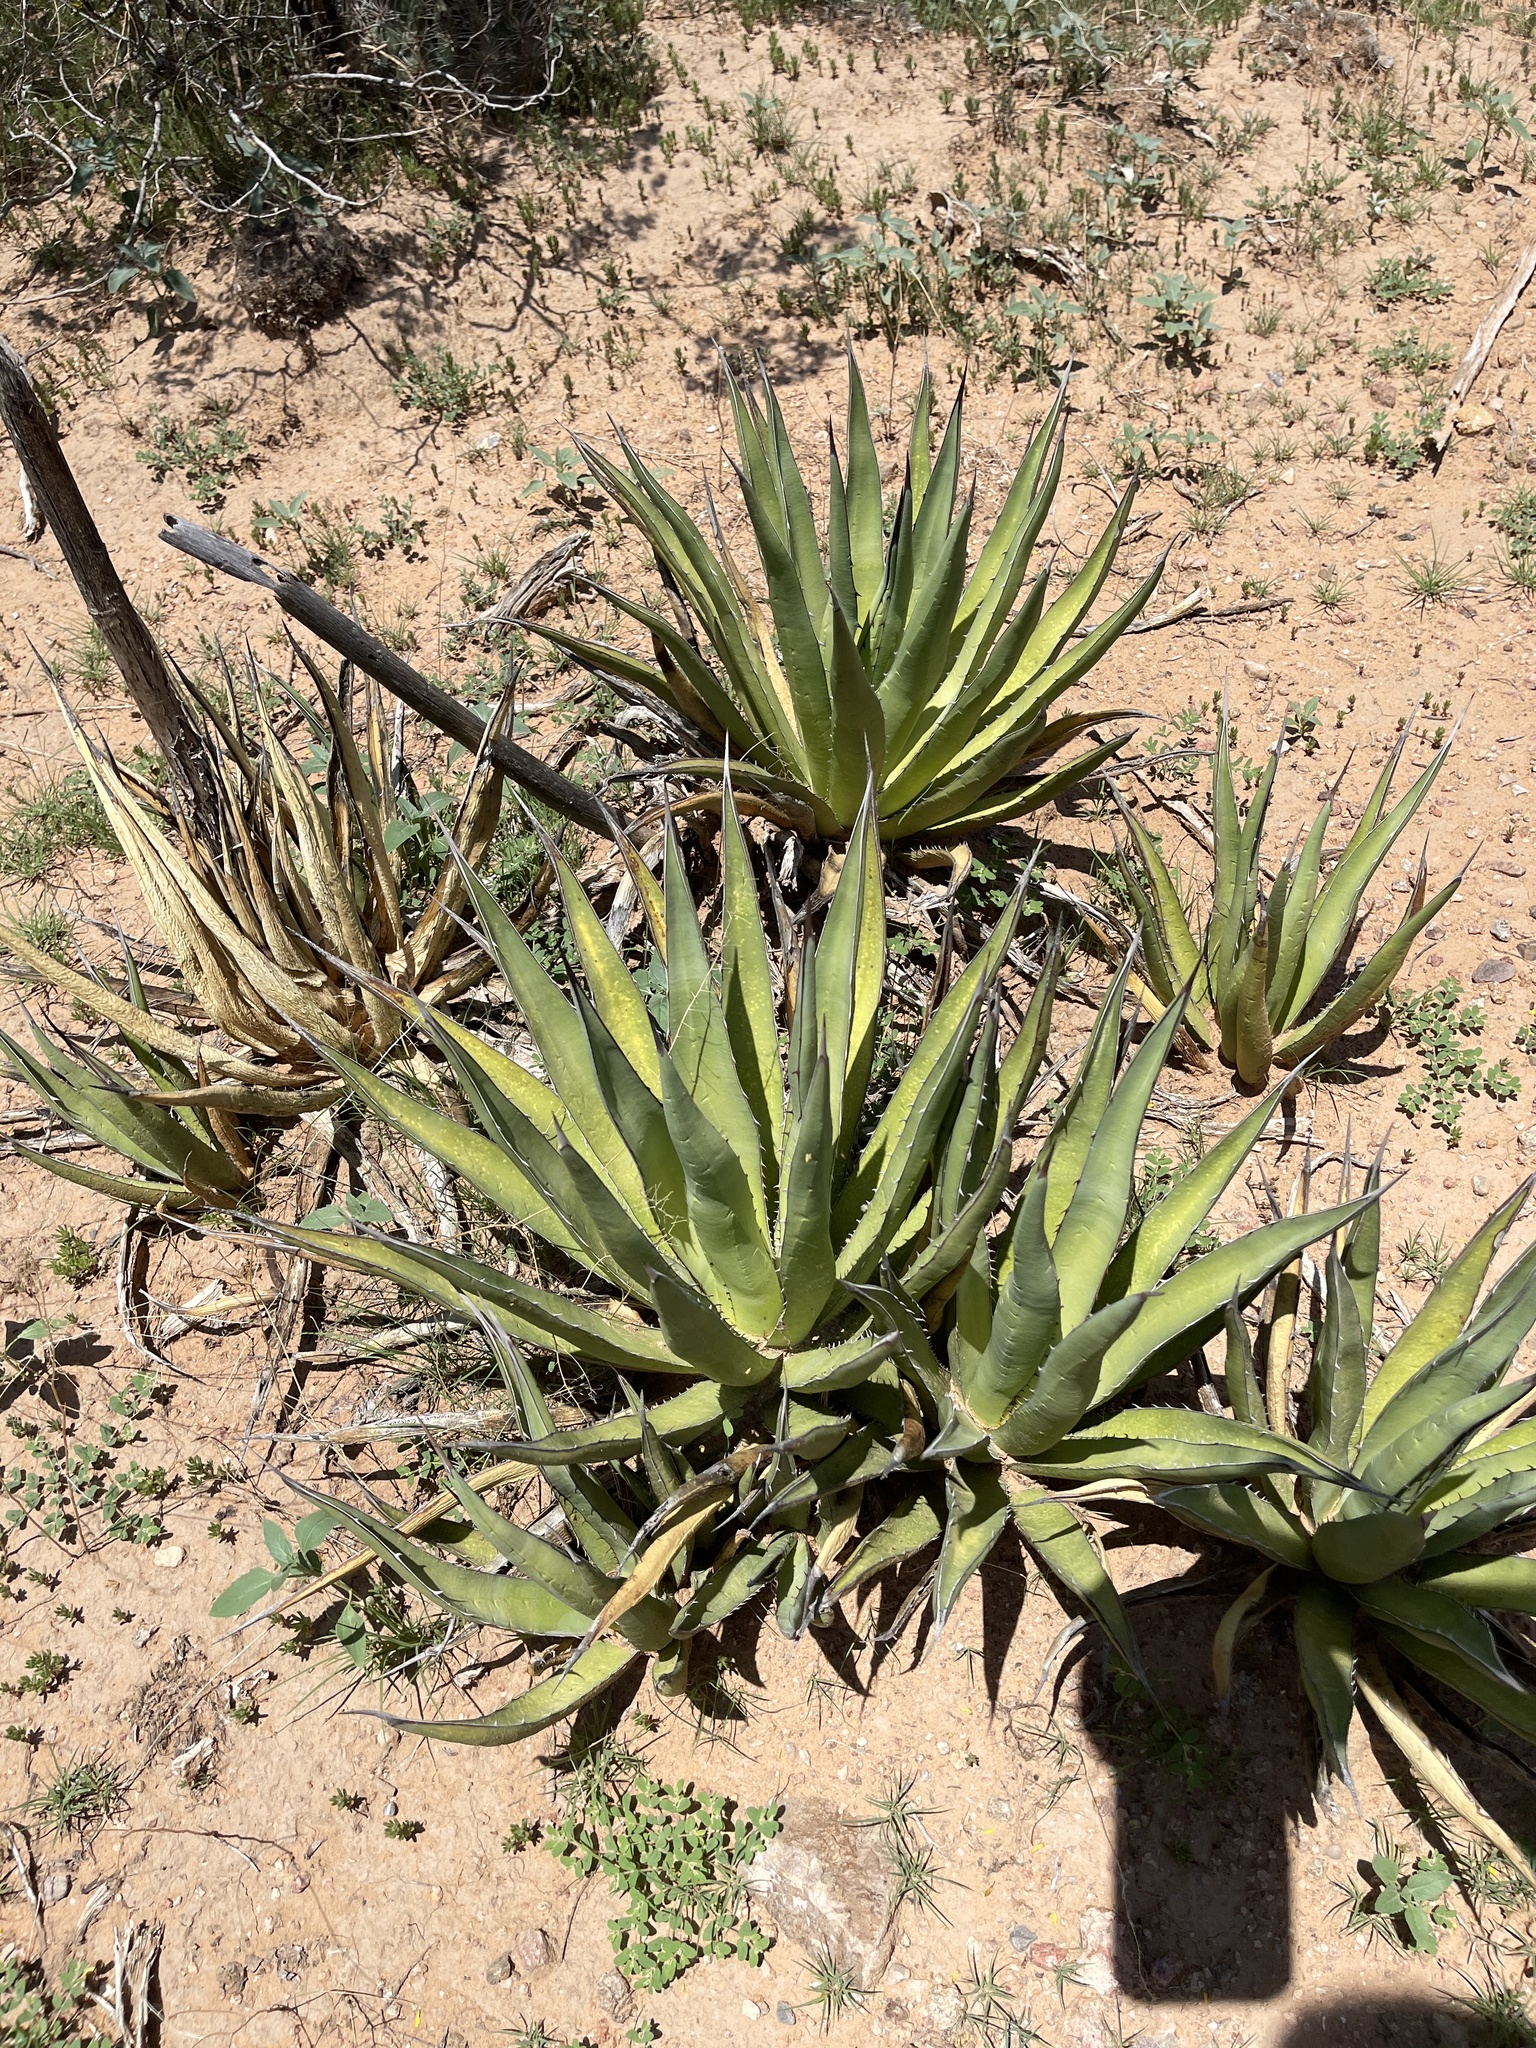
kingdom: Plantae
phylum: Tracheophyta
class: Liliopsida
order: Asparagales
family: Asparagaceae
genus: Agave
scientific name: Agave lechuguilla
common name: Lecheguilla agave
